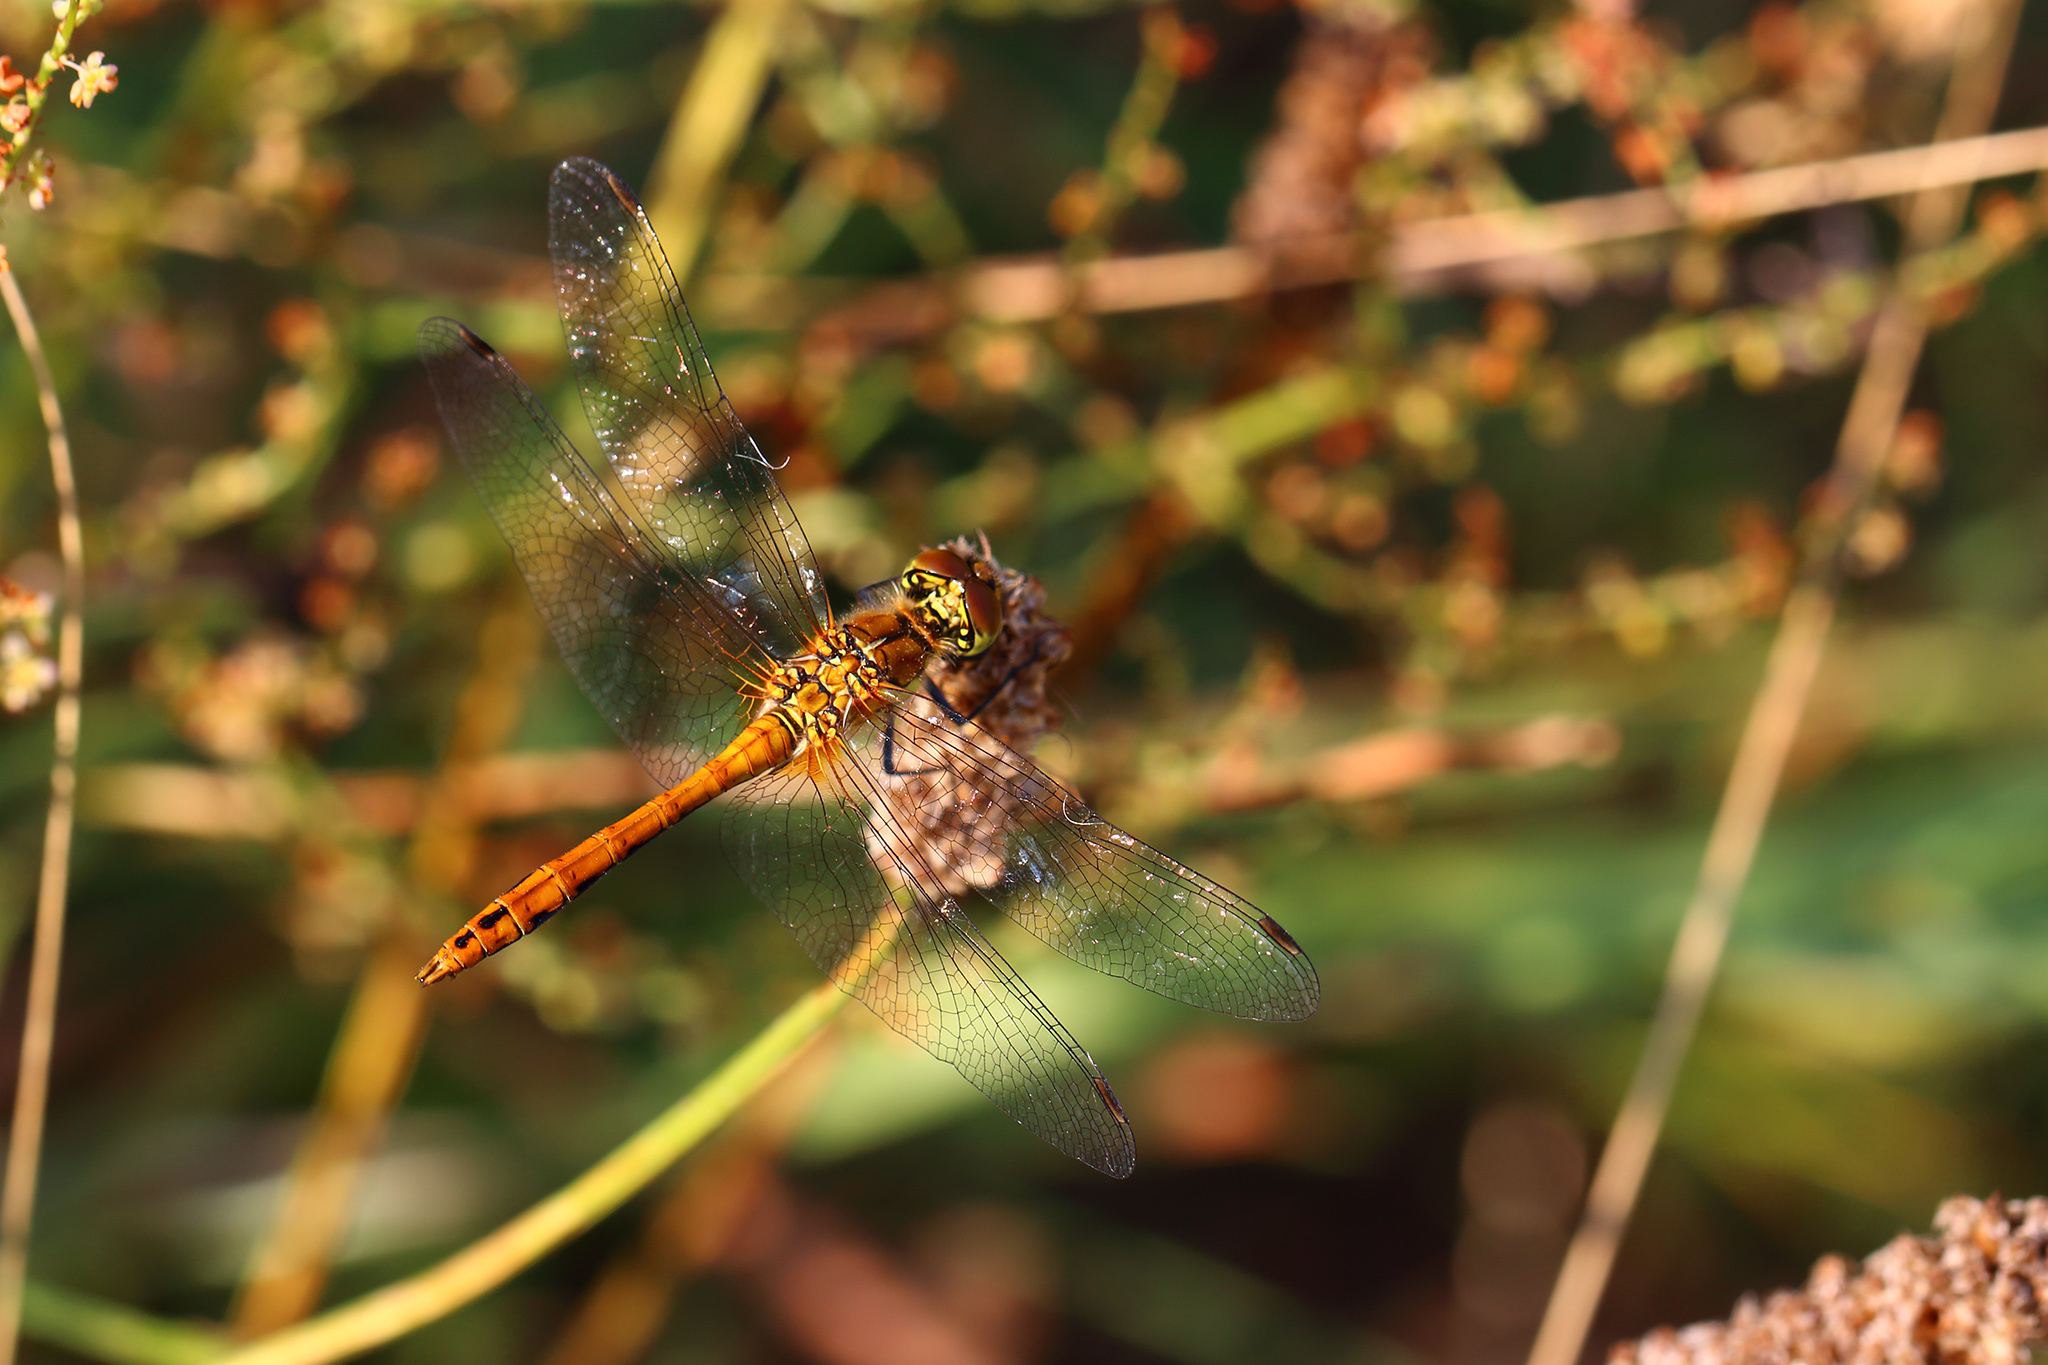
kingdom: Animalia
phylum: Arthropoda
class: Insecta
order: Odonata
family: Libellulidae
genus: Sympetrum
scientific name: Sympetrum sanguineum
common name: Ruddy darter
